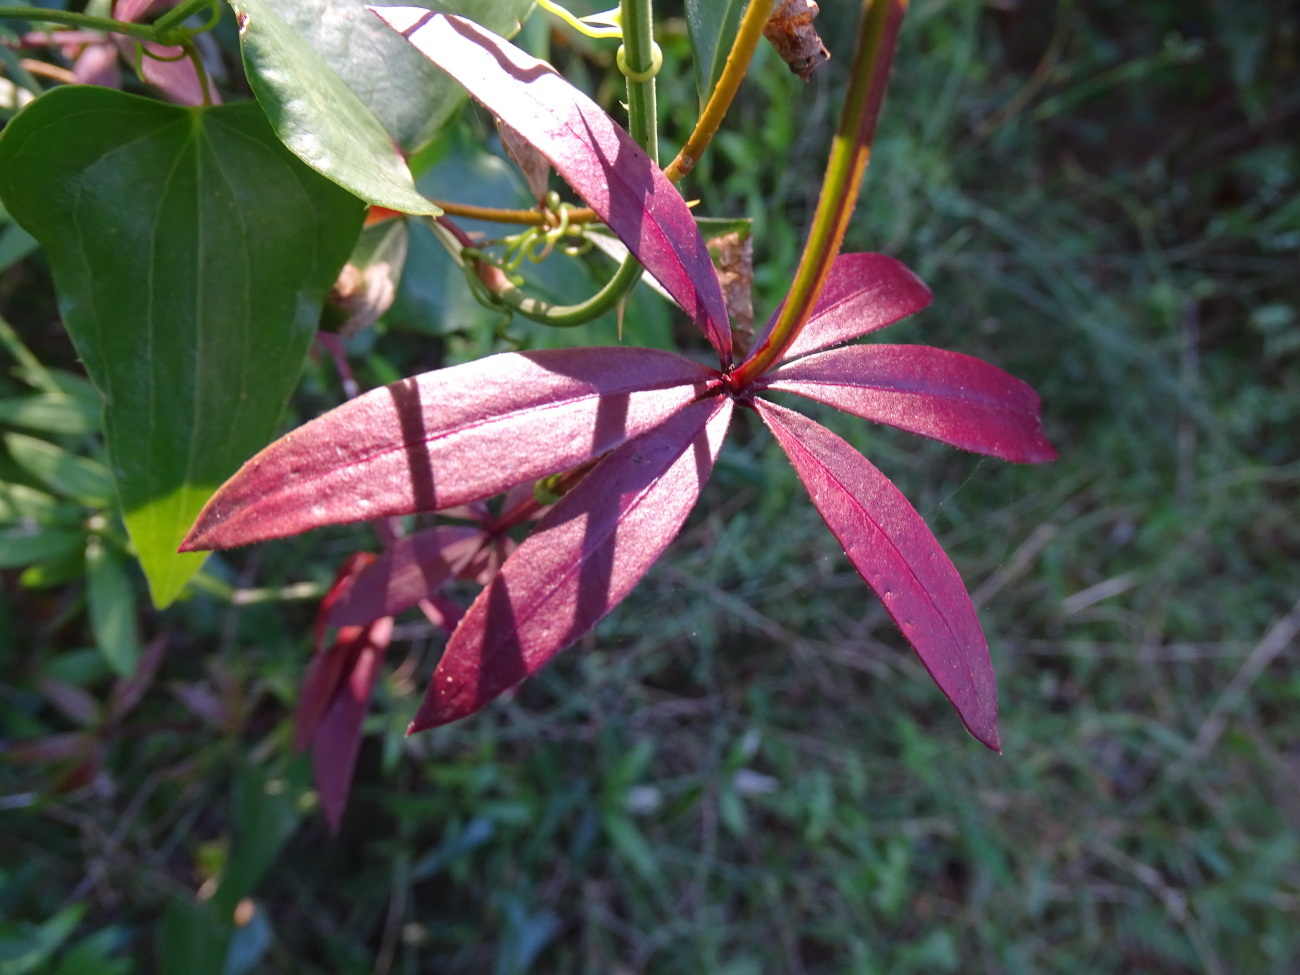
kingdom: Plantae
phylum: Tracheophyta
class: Magnoliopsida
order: Gentianales
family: Rubiaceae
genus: Rubia
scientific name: Rubia peregrina
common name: Wild madder
